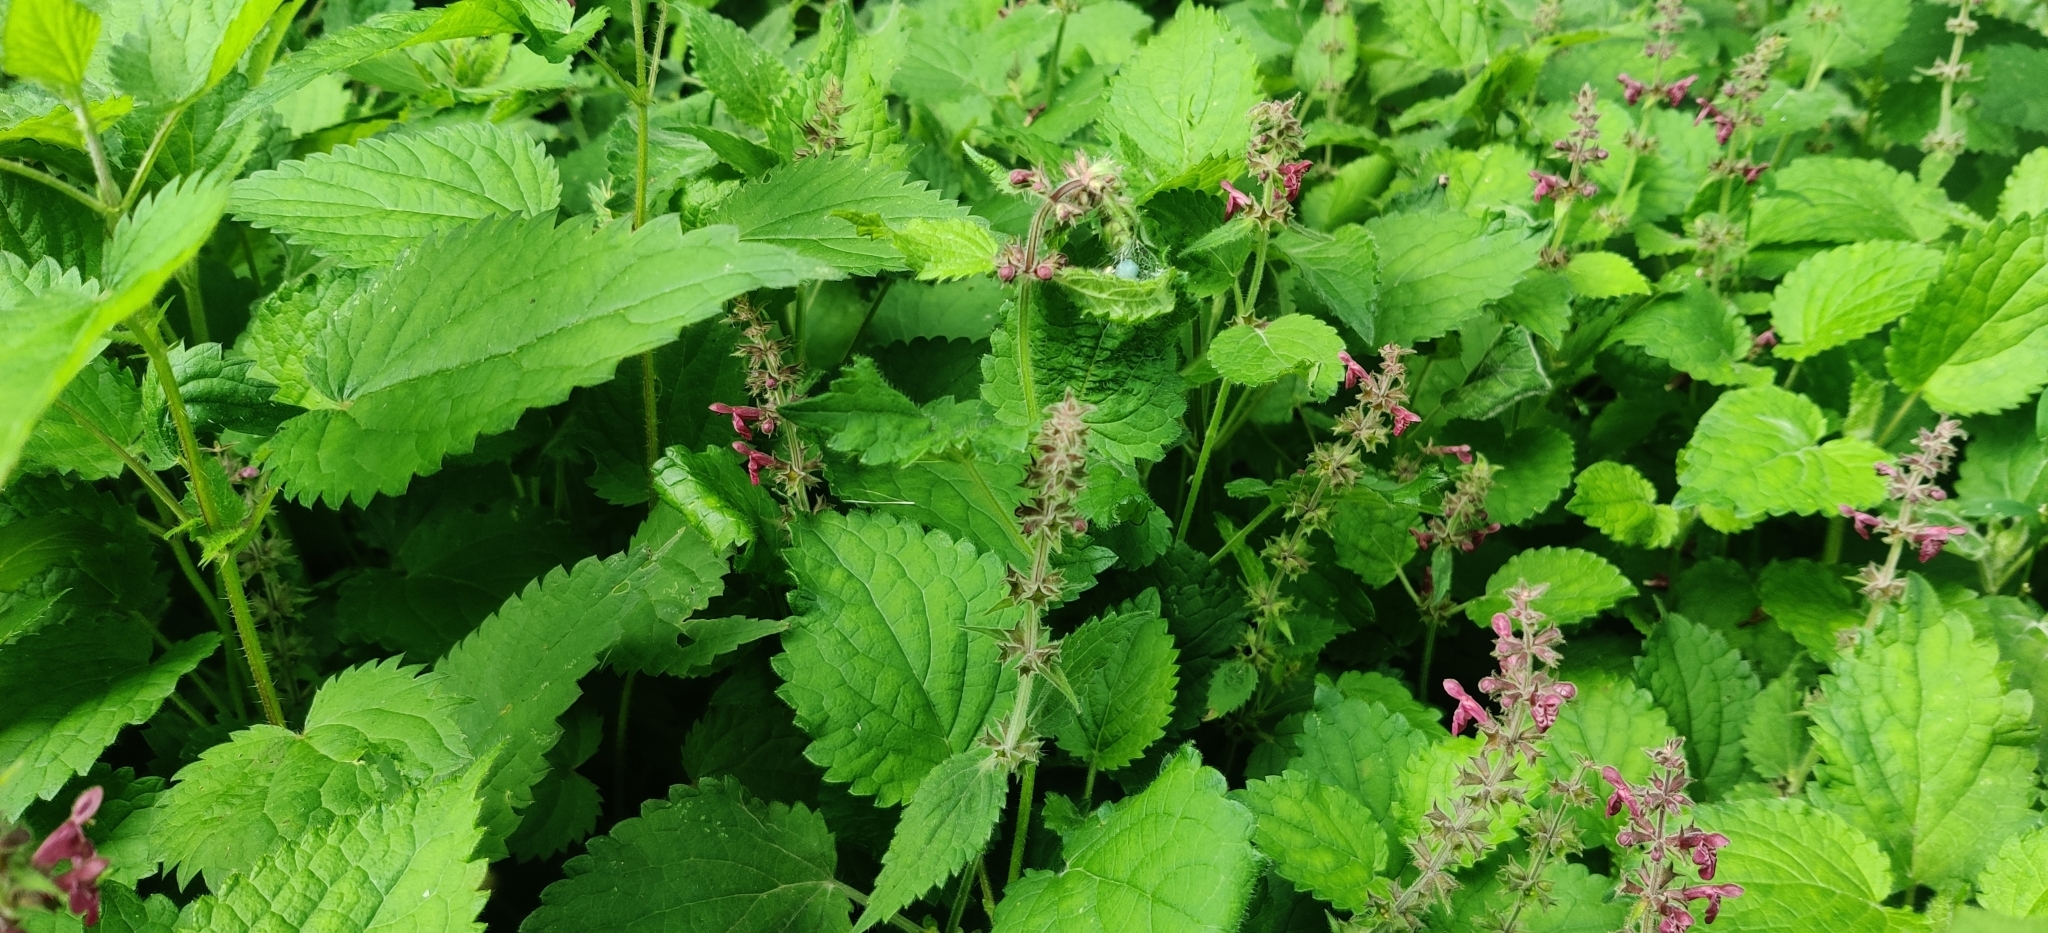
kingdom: Plantae
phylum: Tracheophyta
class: Magnoliopsida
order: Lamiales
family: Lamiaceae
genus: Stachys
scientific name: Stachys sylvatica
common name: Hedge woundwort
